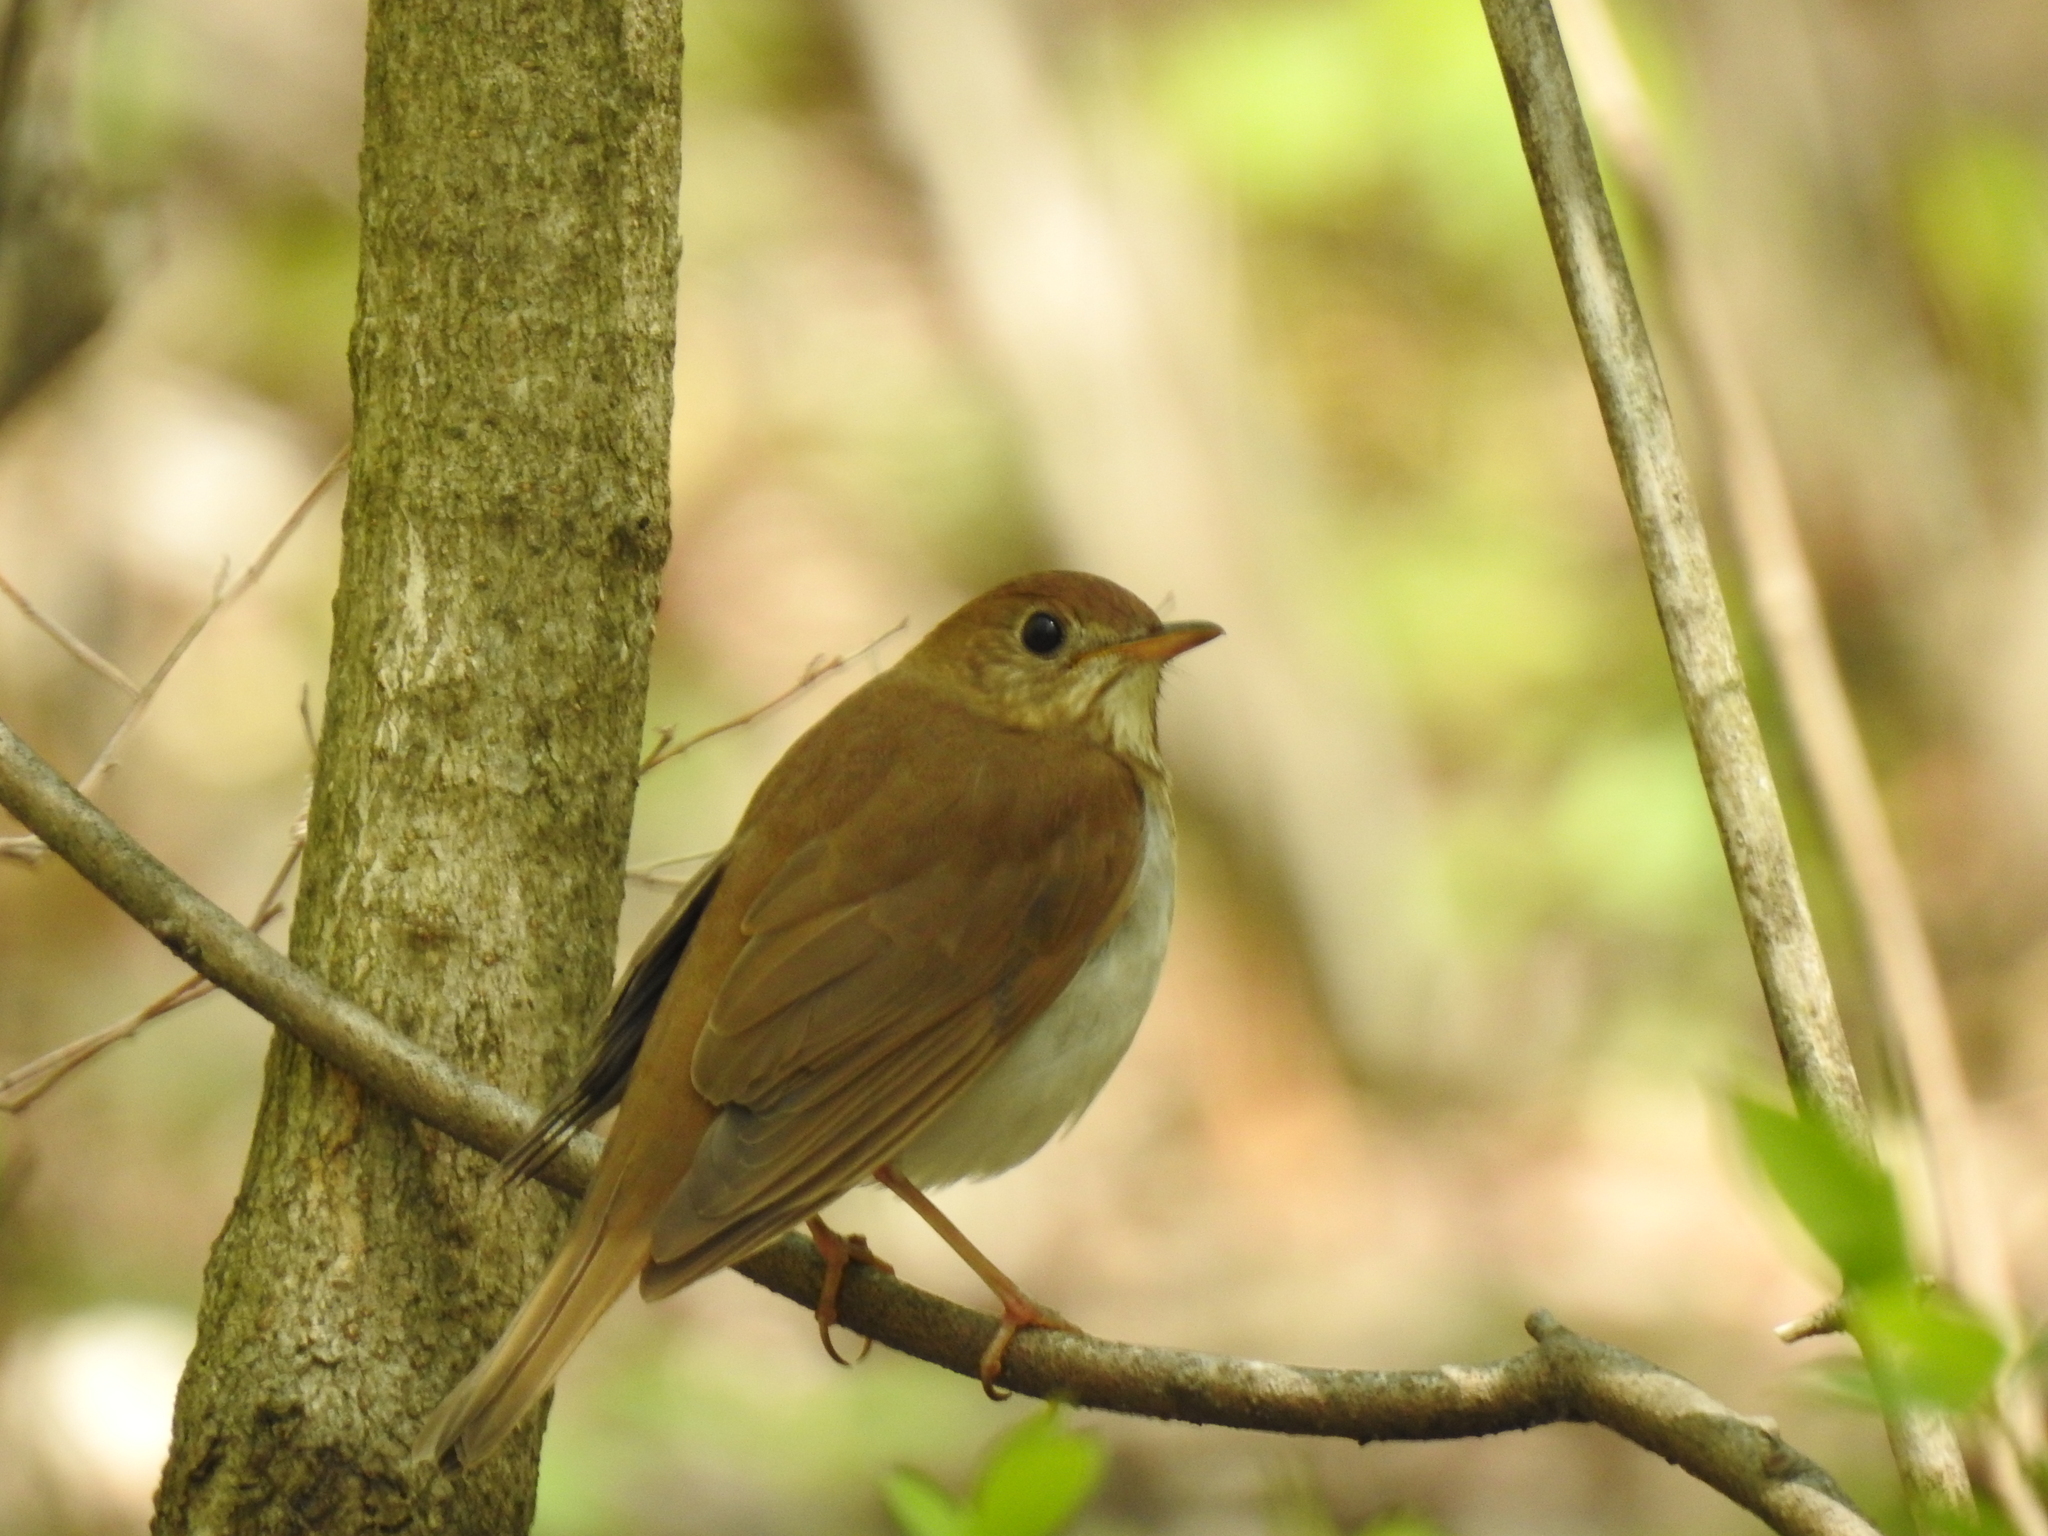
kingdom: Animalia
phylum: Chordata
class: Aves
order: Passeriformes
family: Turdidae
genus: Catharus
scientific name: Catharus fuscescens
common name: Veery
